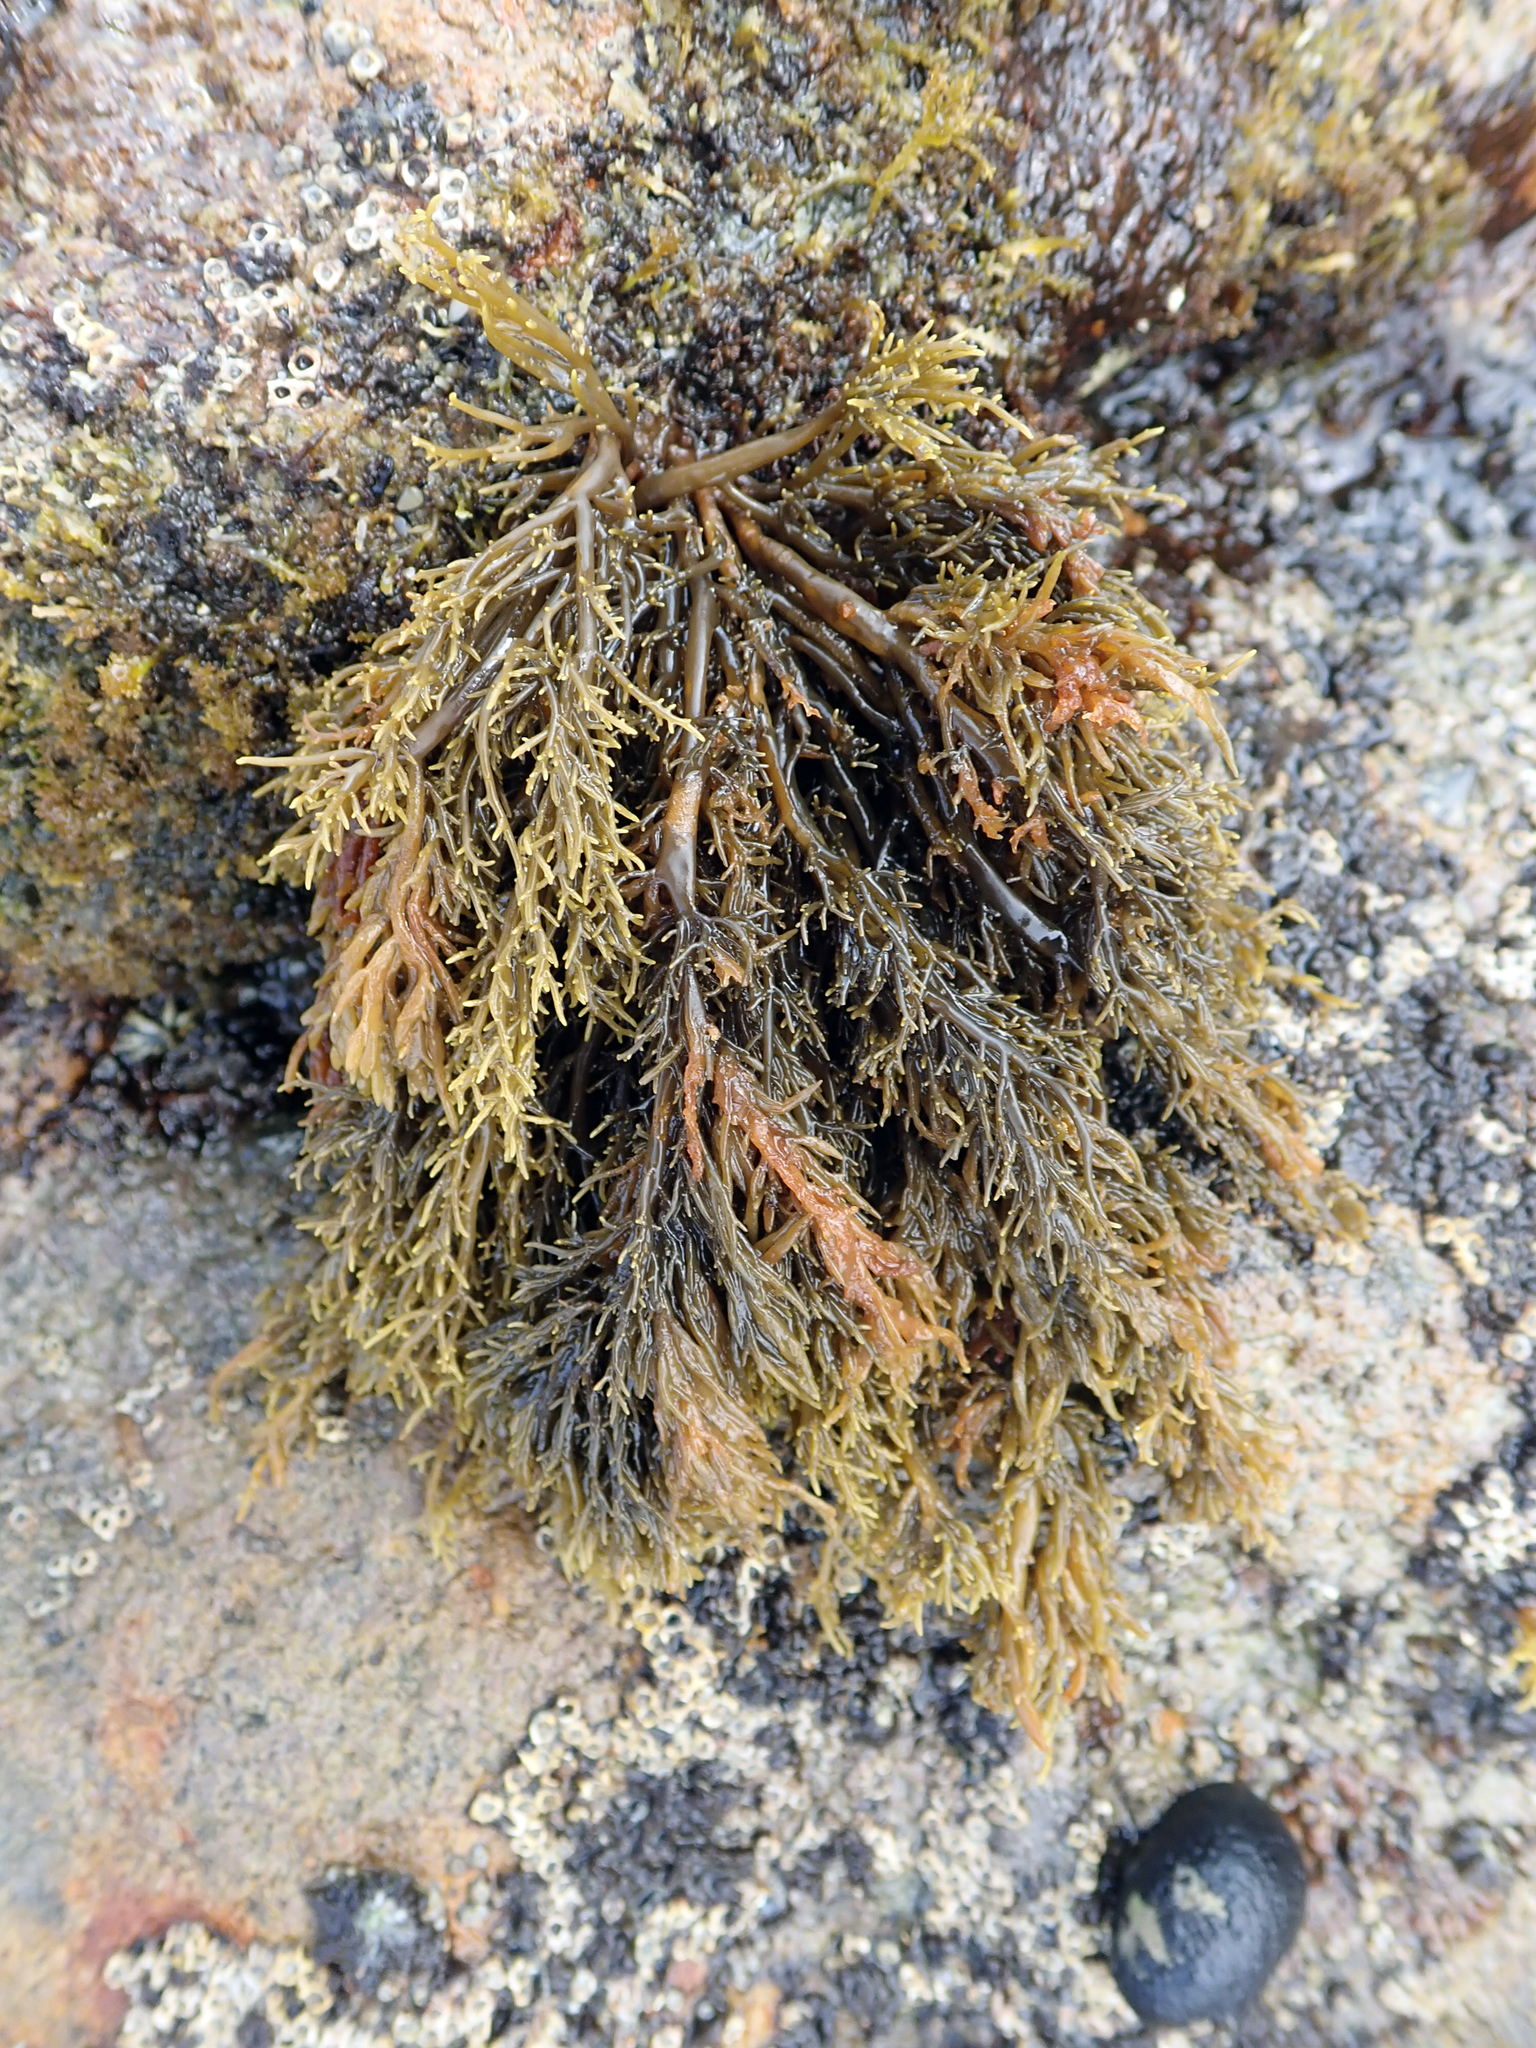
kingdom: Chromista
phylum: Ochrophyta
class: Phaeophyceae
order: Scytothamnales
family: Scytothamnaceae
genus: Scytothamnus
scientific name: Scytothamnus australis
